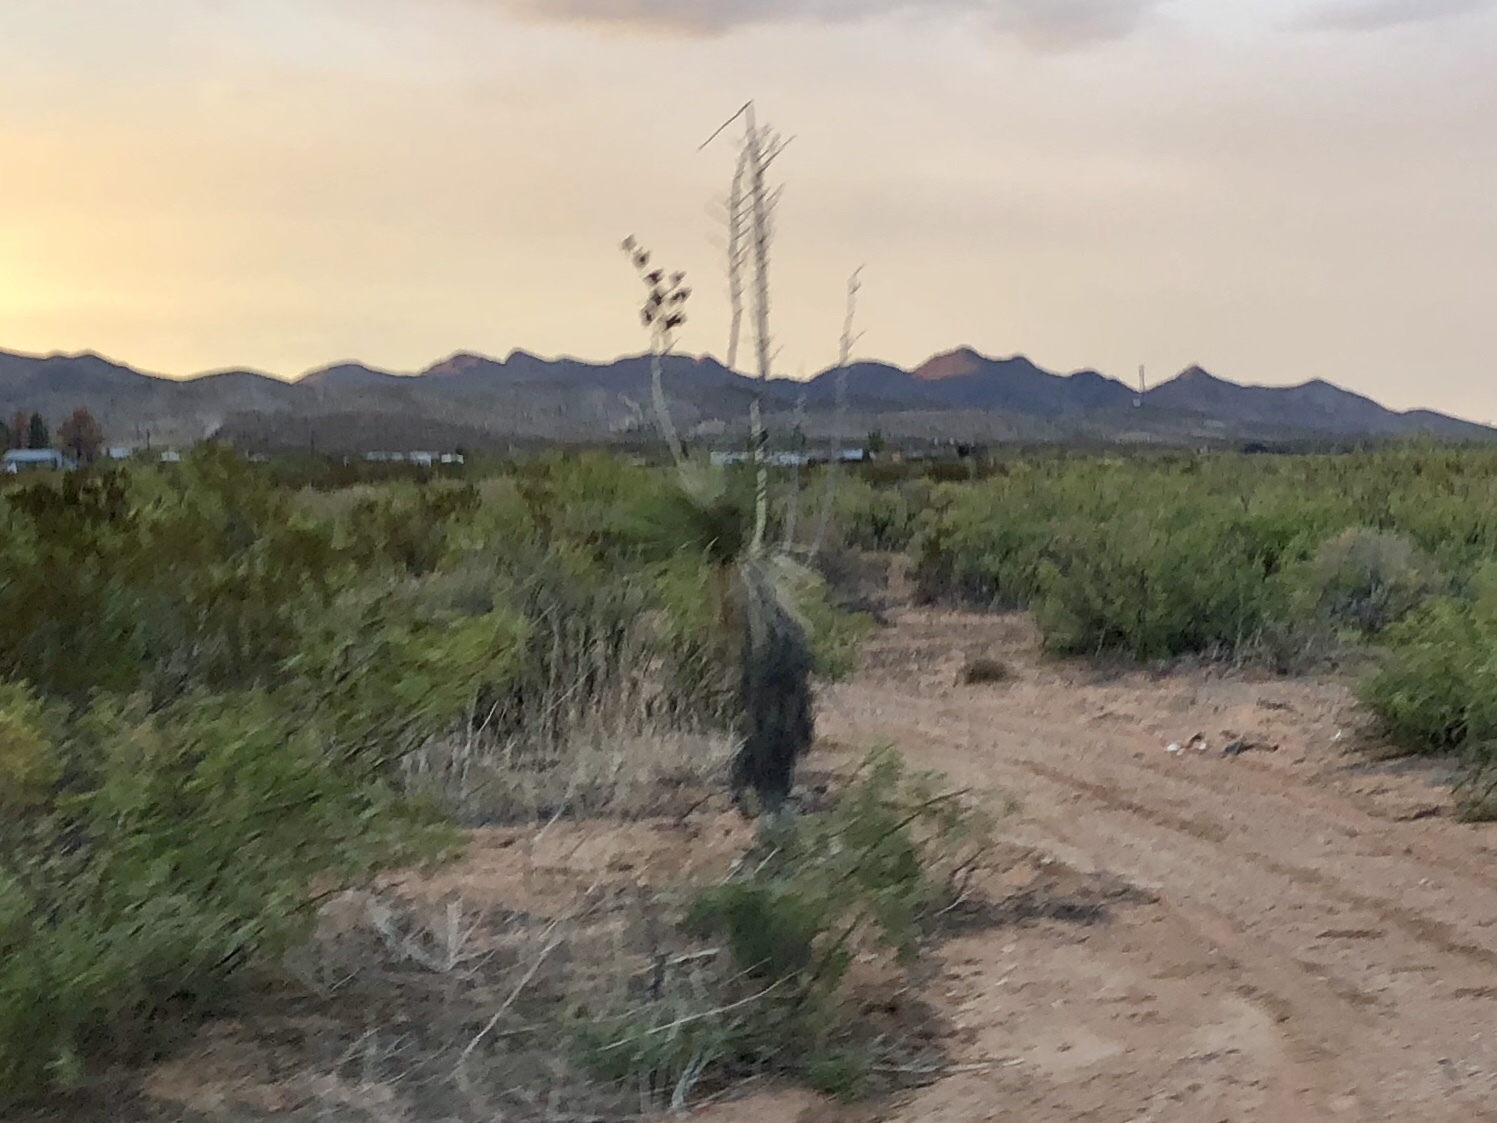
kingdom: Plantae
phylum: Tracheophyta
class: Liliopsida
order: Asparagales
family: Asparagaceae
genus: Yucca
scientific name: Yucca elata
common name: Palmella
